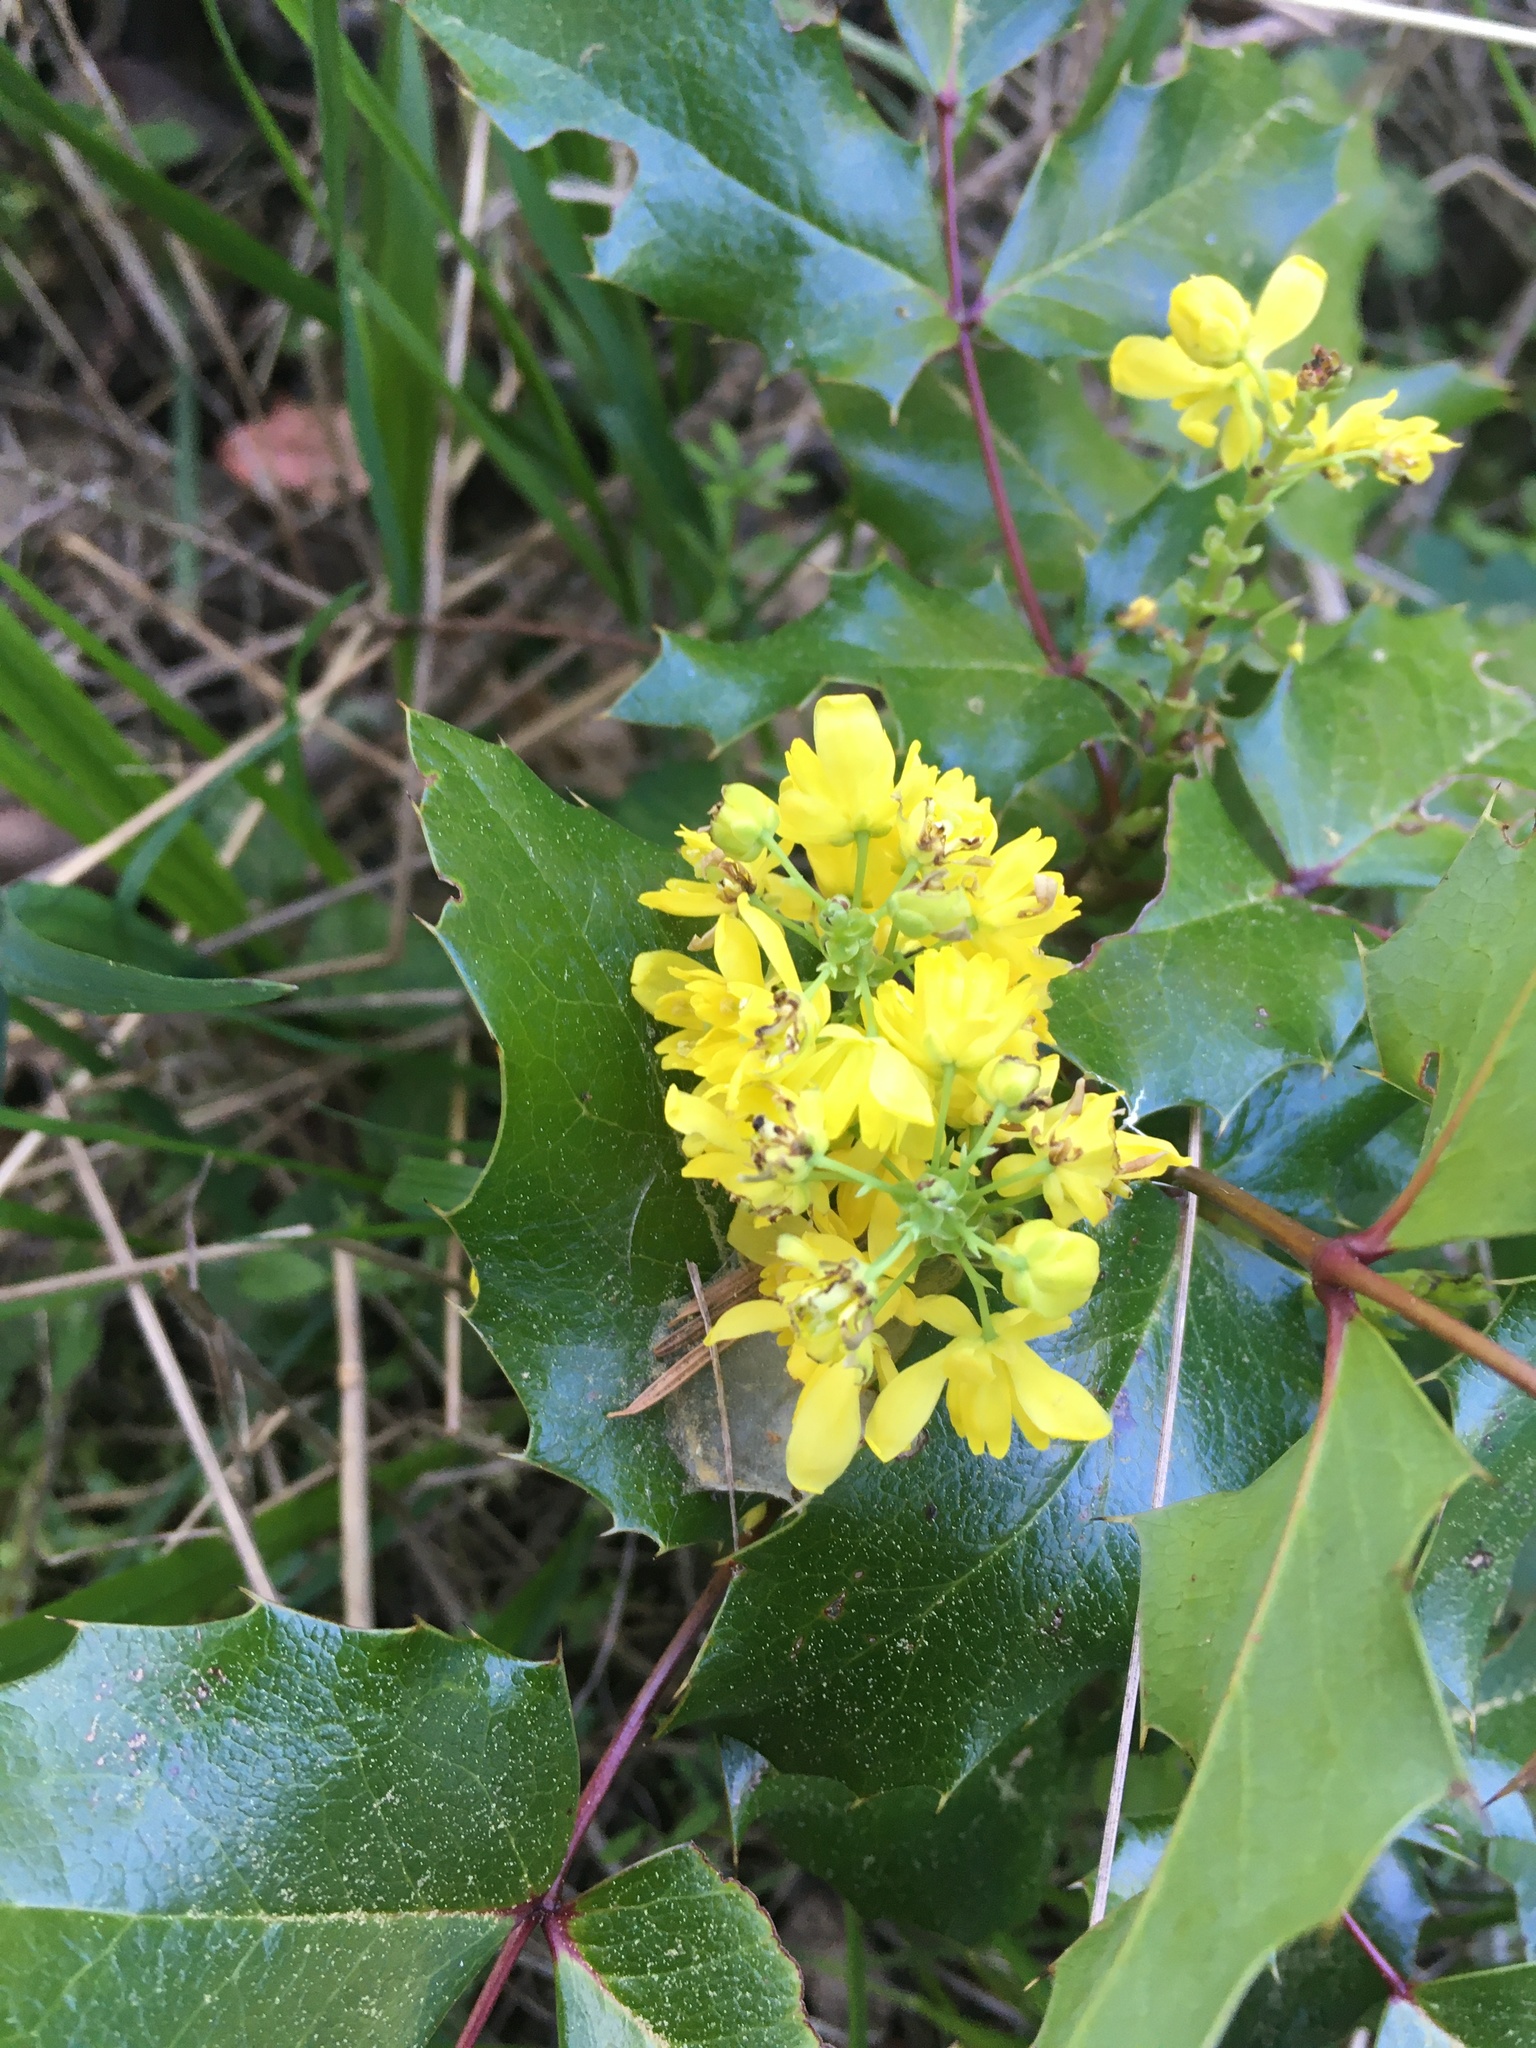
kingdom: Plantae
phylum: Tracheophyta
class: Magnoliopsida
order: Ranunculales
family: Berberidaceae
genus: Mahonia
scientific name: Mahonia aquifolium
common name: Oregon-grape
